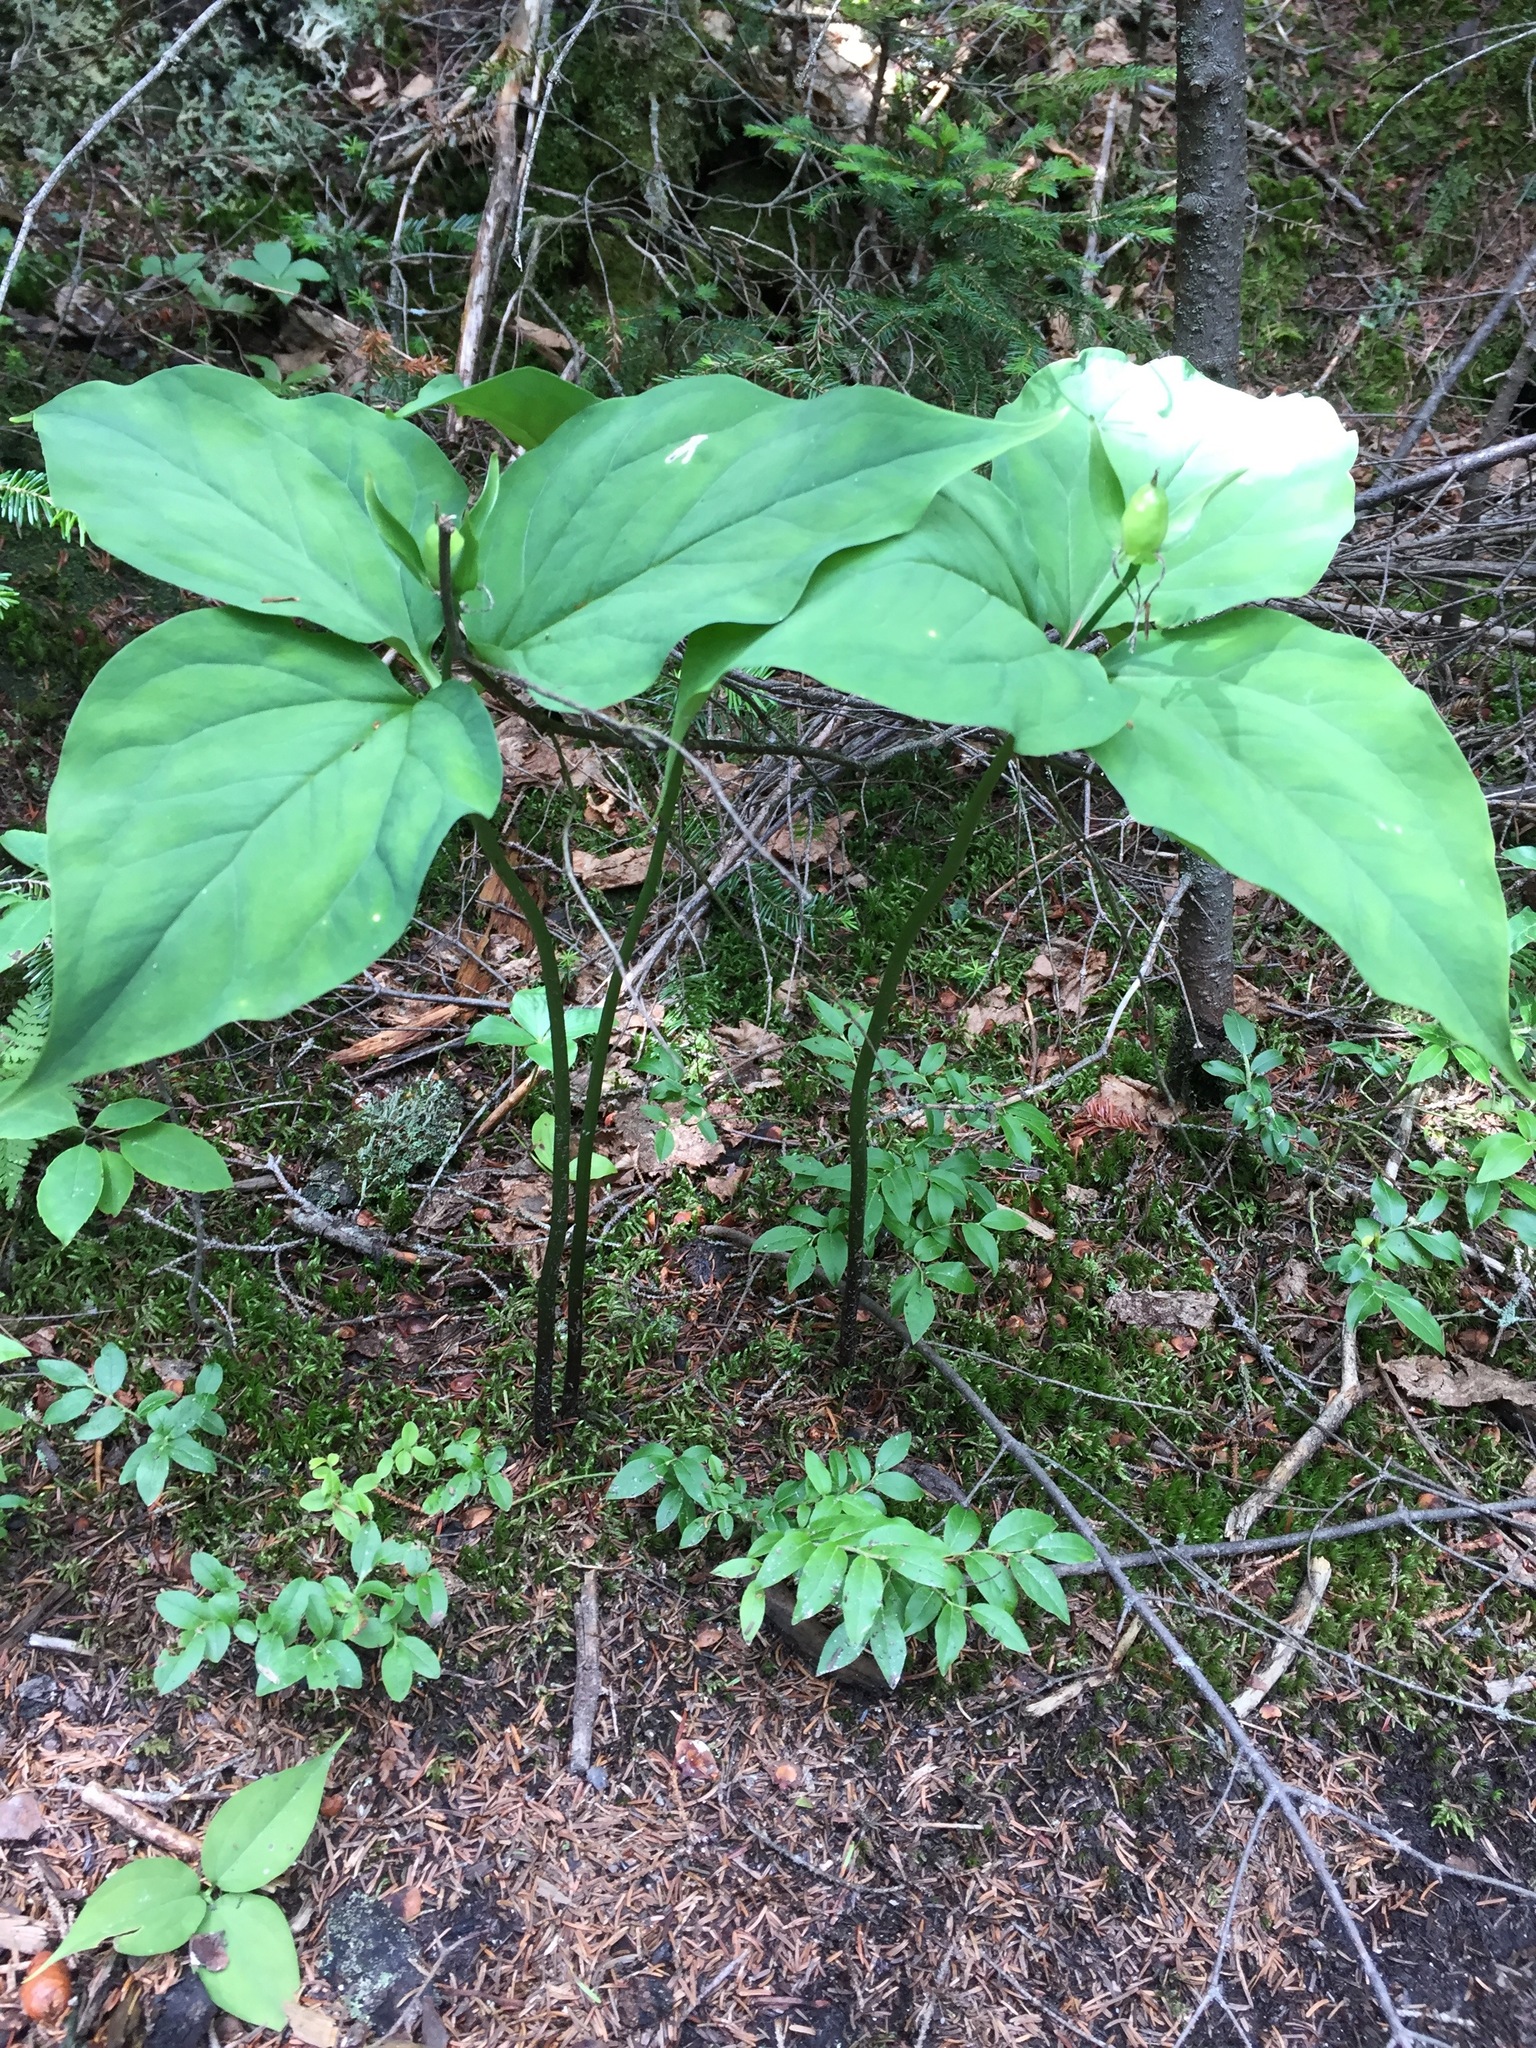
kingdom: Plantae
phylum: Tracheophyta
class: Liliopsida
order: Liliales
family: Melanthiaceae
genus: Trillium
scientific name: Trillium undulatum
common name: Paint trillium
